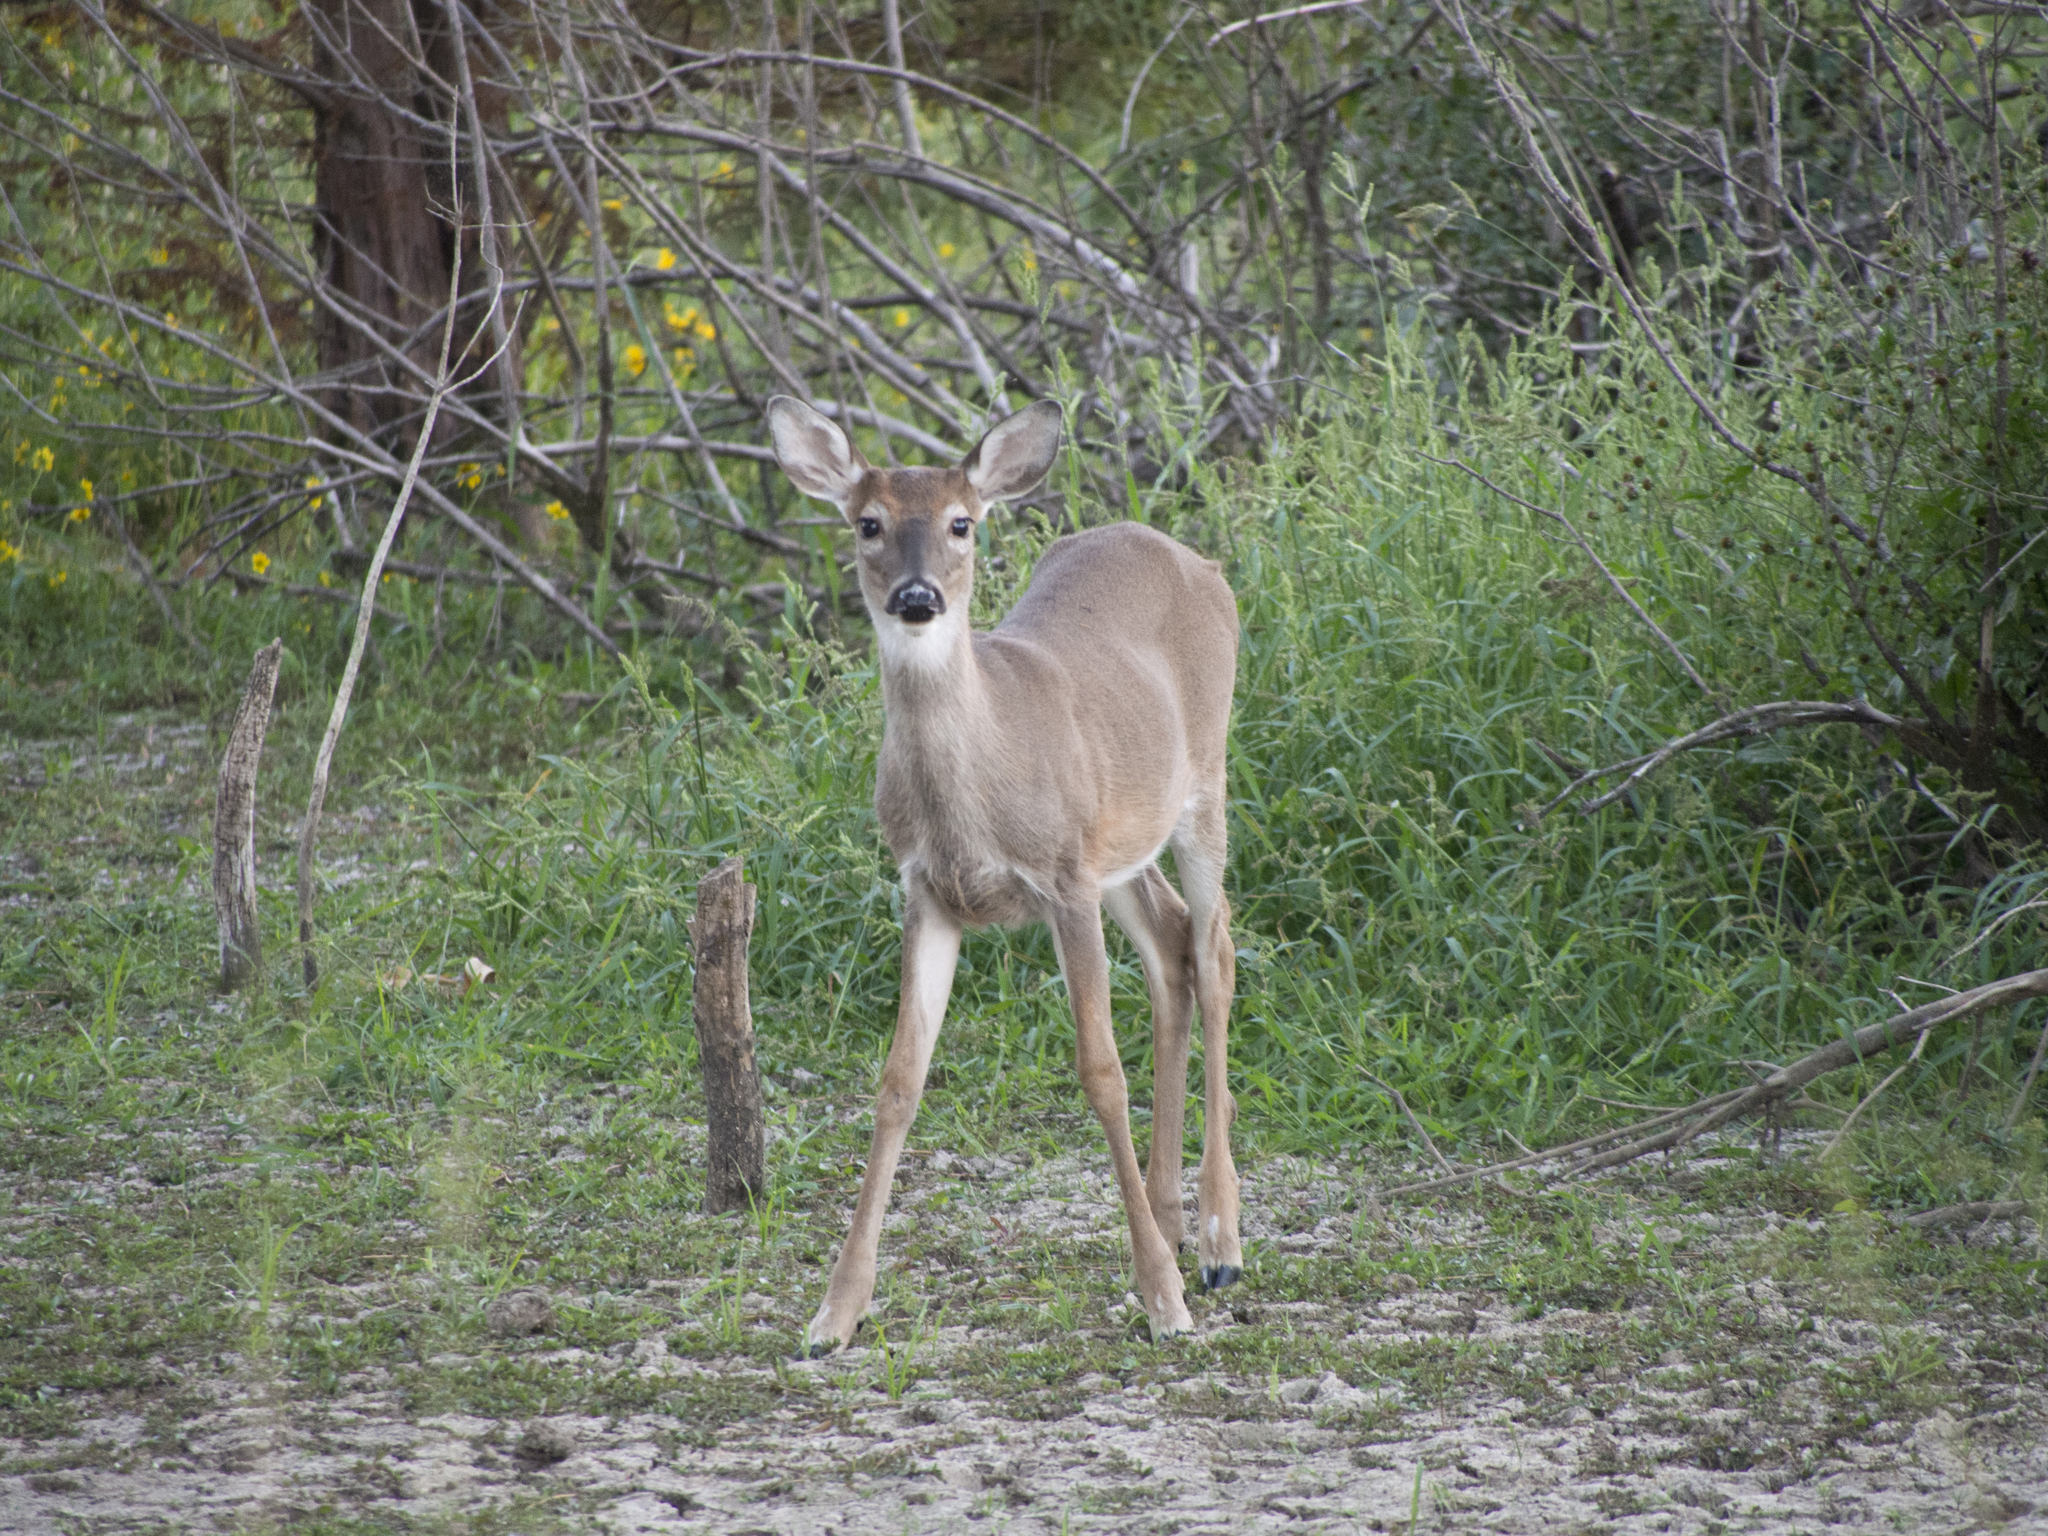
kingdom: Animalia
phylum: Chordata
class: Mammalia
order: Artiodactyla
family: Cervidae
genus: Odocoileus
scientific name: Odocoileus virginianus
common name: White-tailed deer
